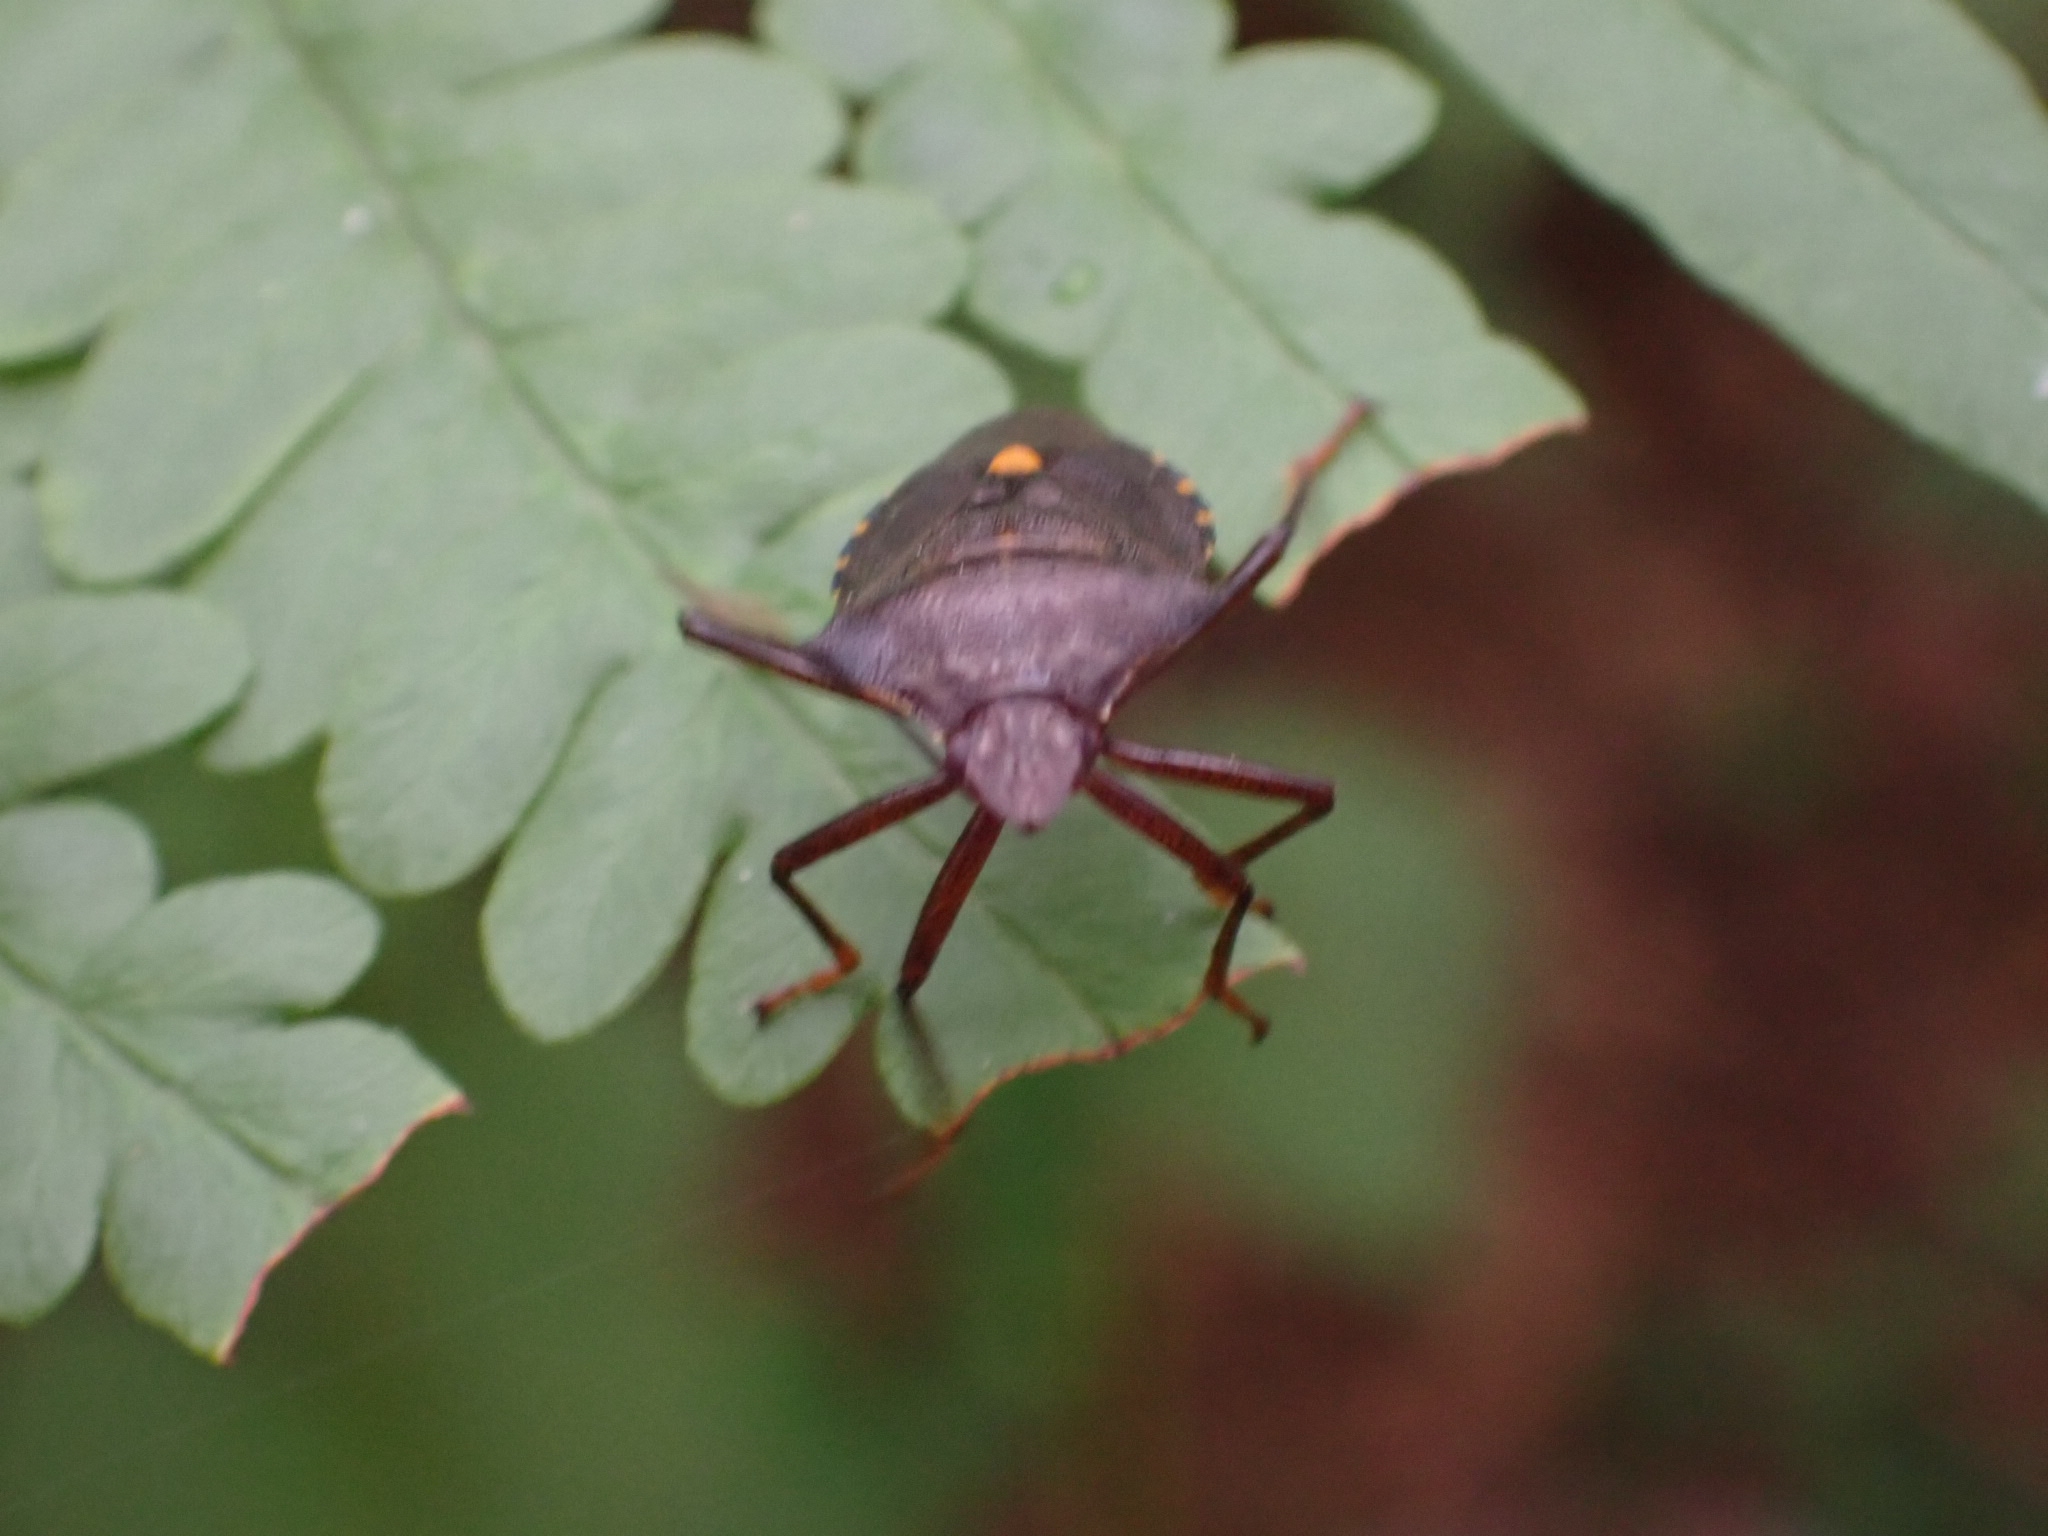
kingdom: Animalia
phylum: Arthropoda
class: Insecta
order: Hemiptera
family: Pentatomidae
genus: Pentatoma
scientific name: Pentatoma rufipes
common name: Forest bug
